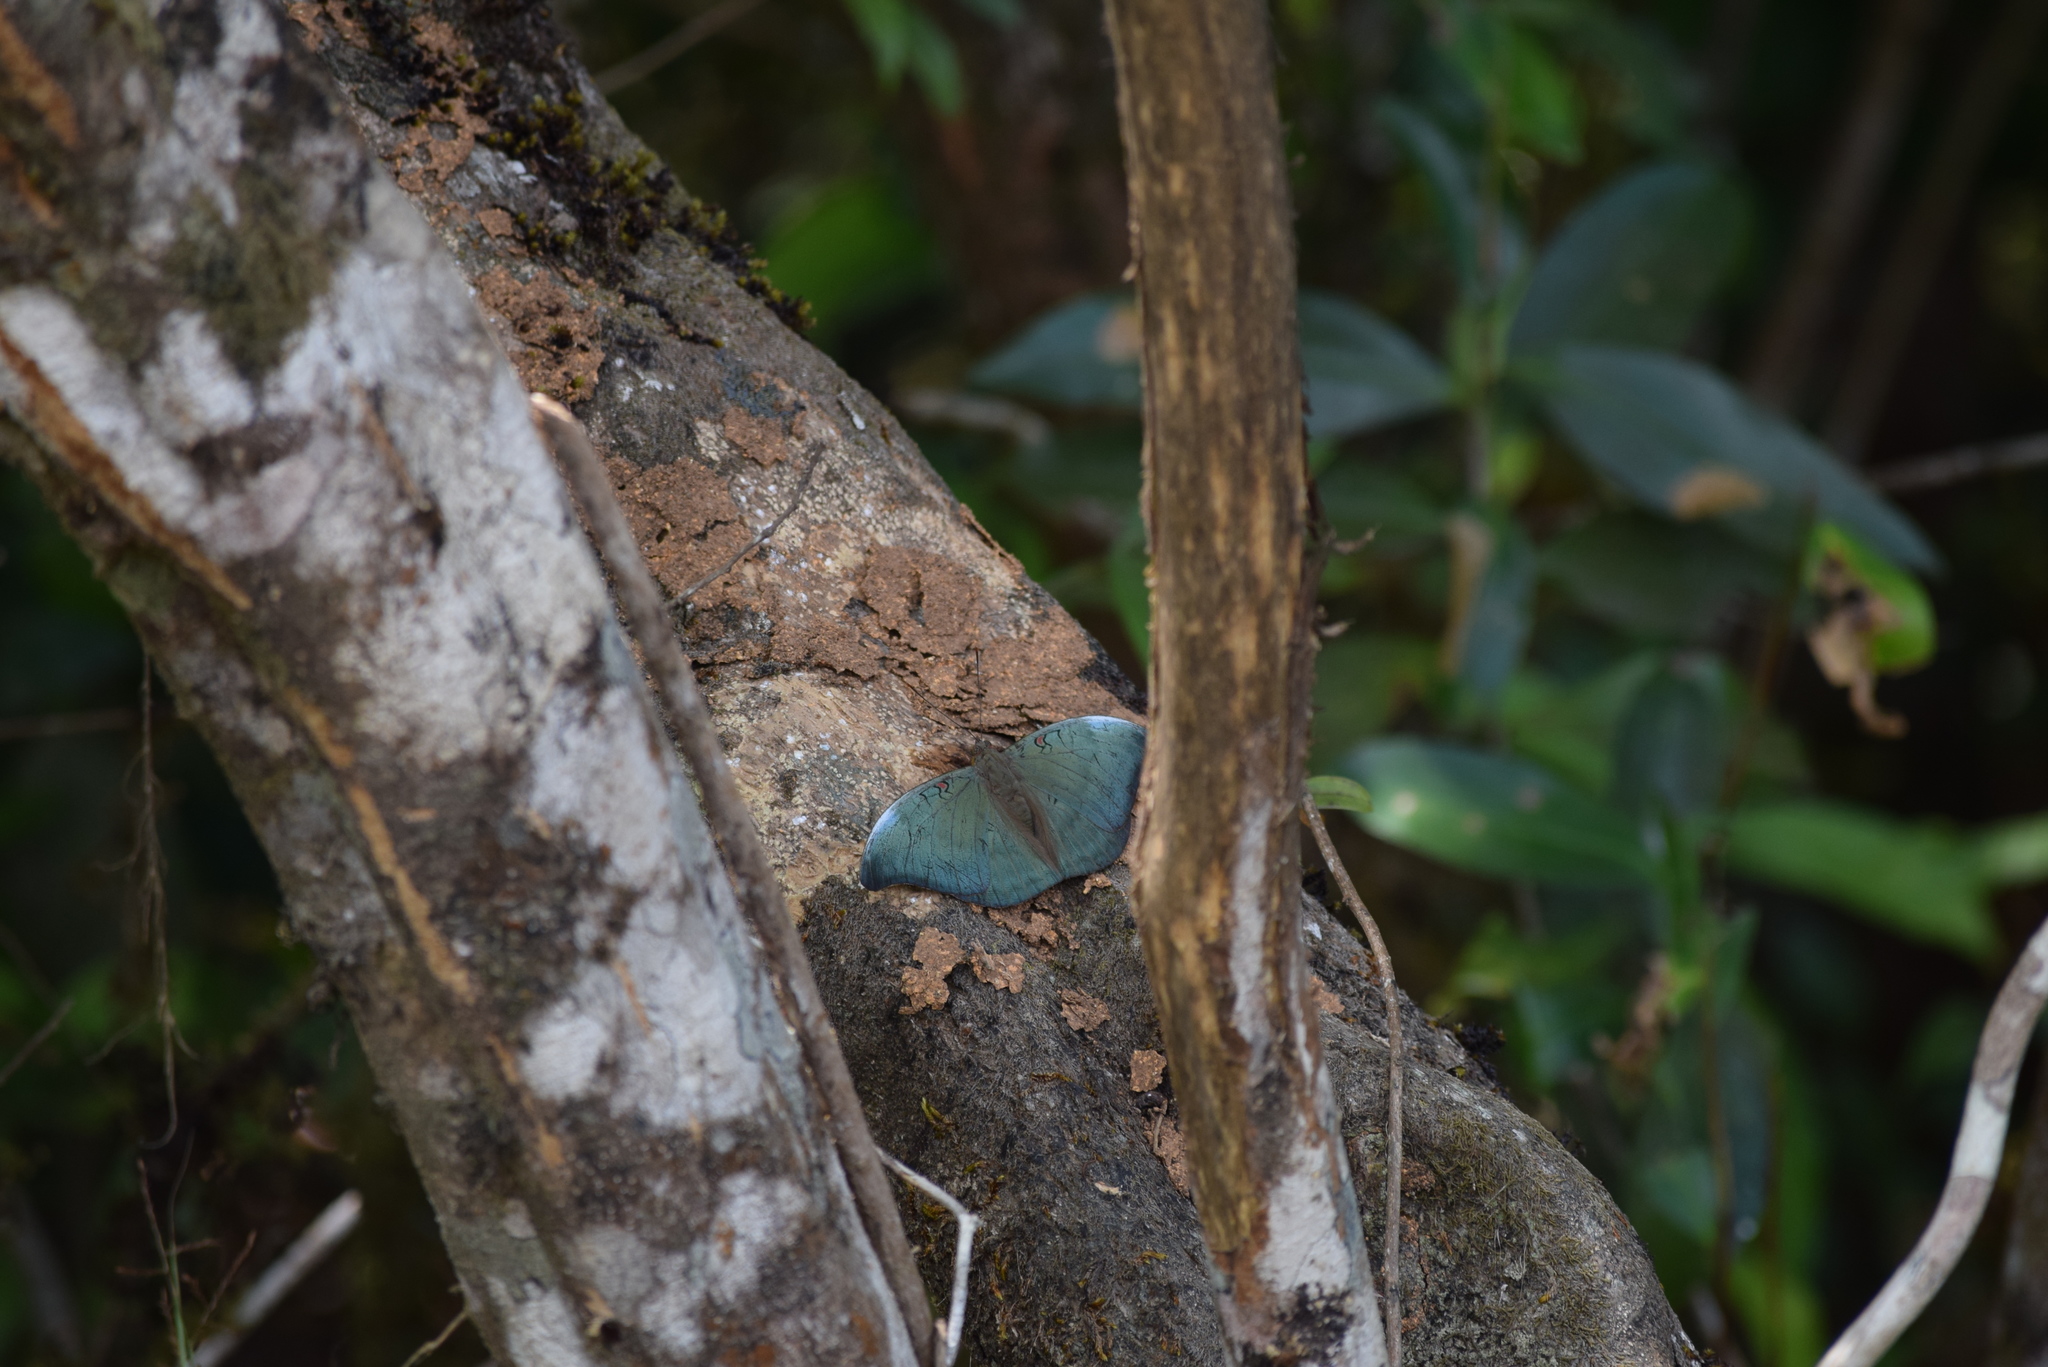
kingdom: Animalia
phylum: Arthropoda
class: Insecta
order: Lepidoptera
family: Nymphalidae
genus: Euthalia
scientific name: Euthalia Dophla evelina
